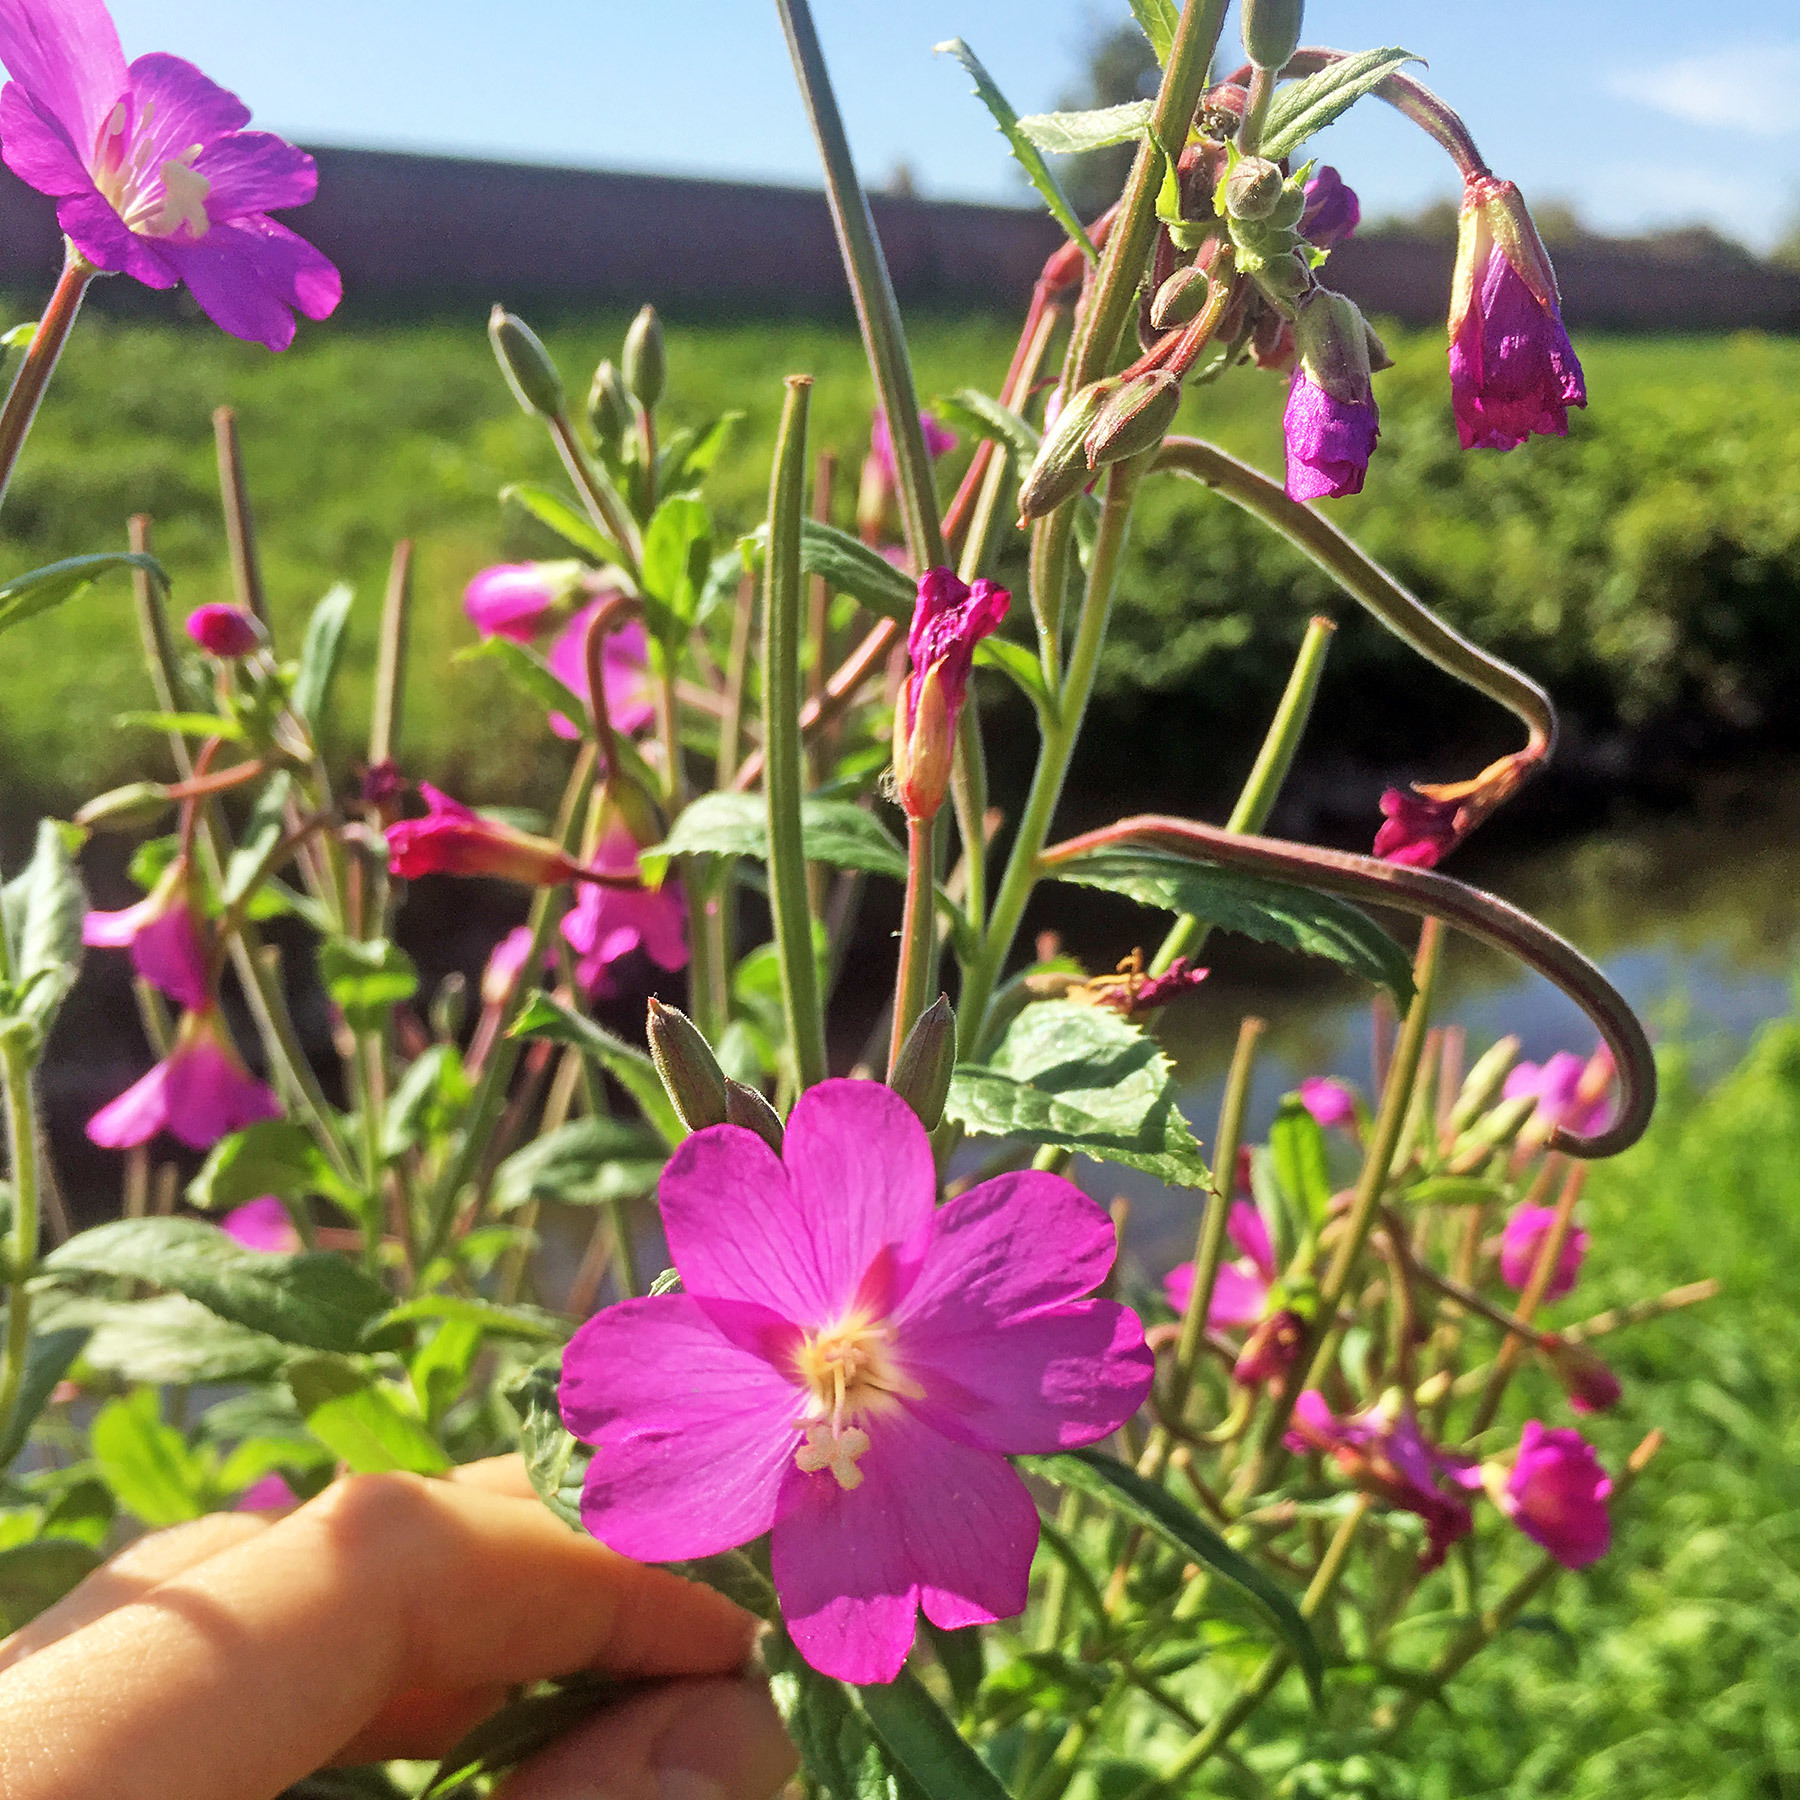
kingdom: Plantae
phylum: Tracheophyta
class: Magnoliopsida
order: Myrtales
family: Onagraceae
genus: Epilobium
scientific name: Epilobium hirsutum
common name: Great willowherb
